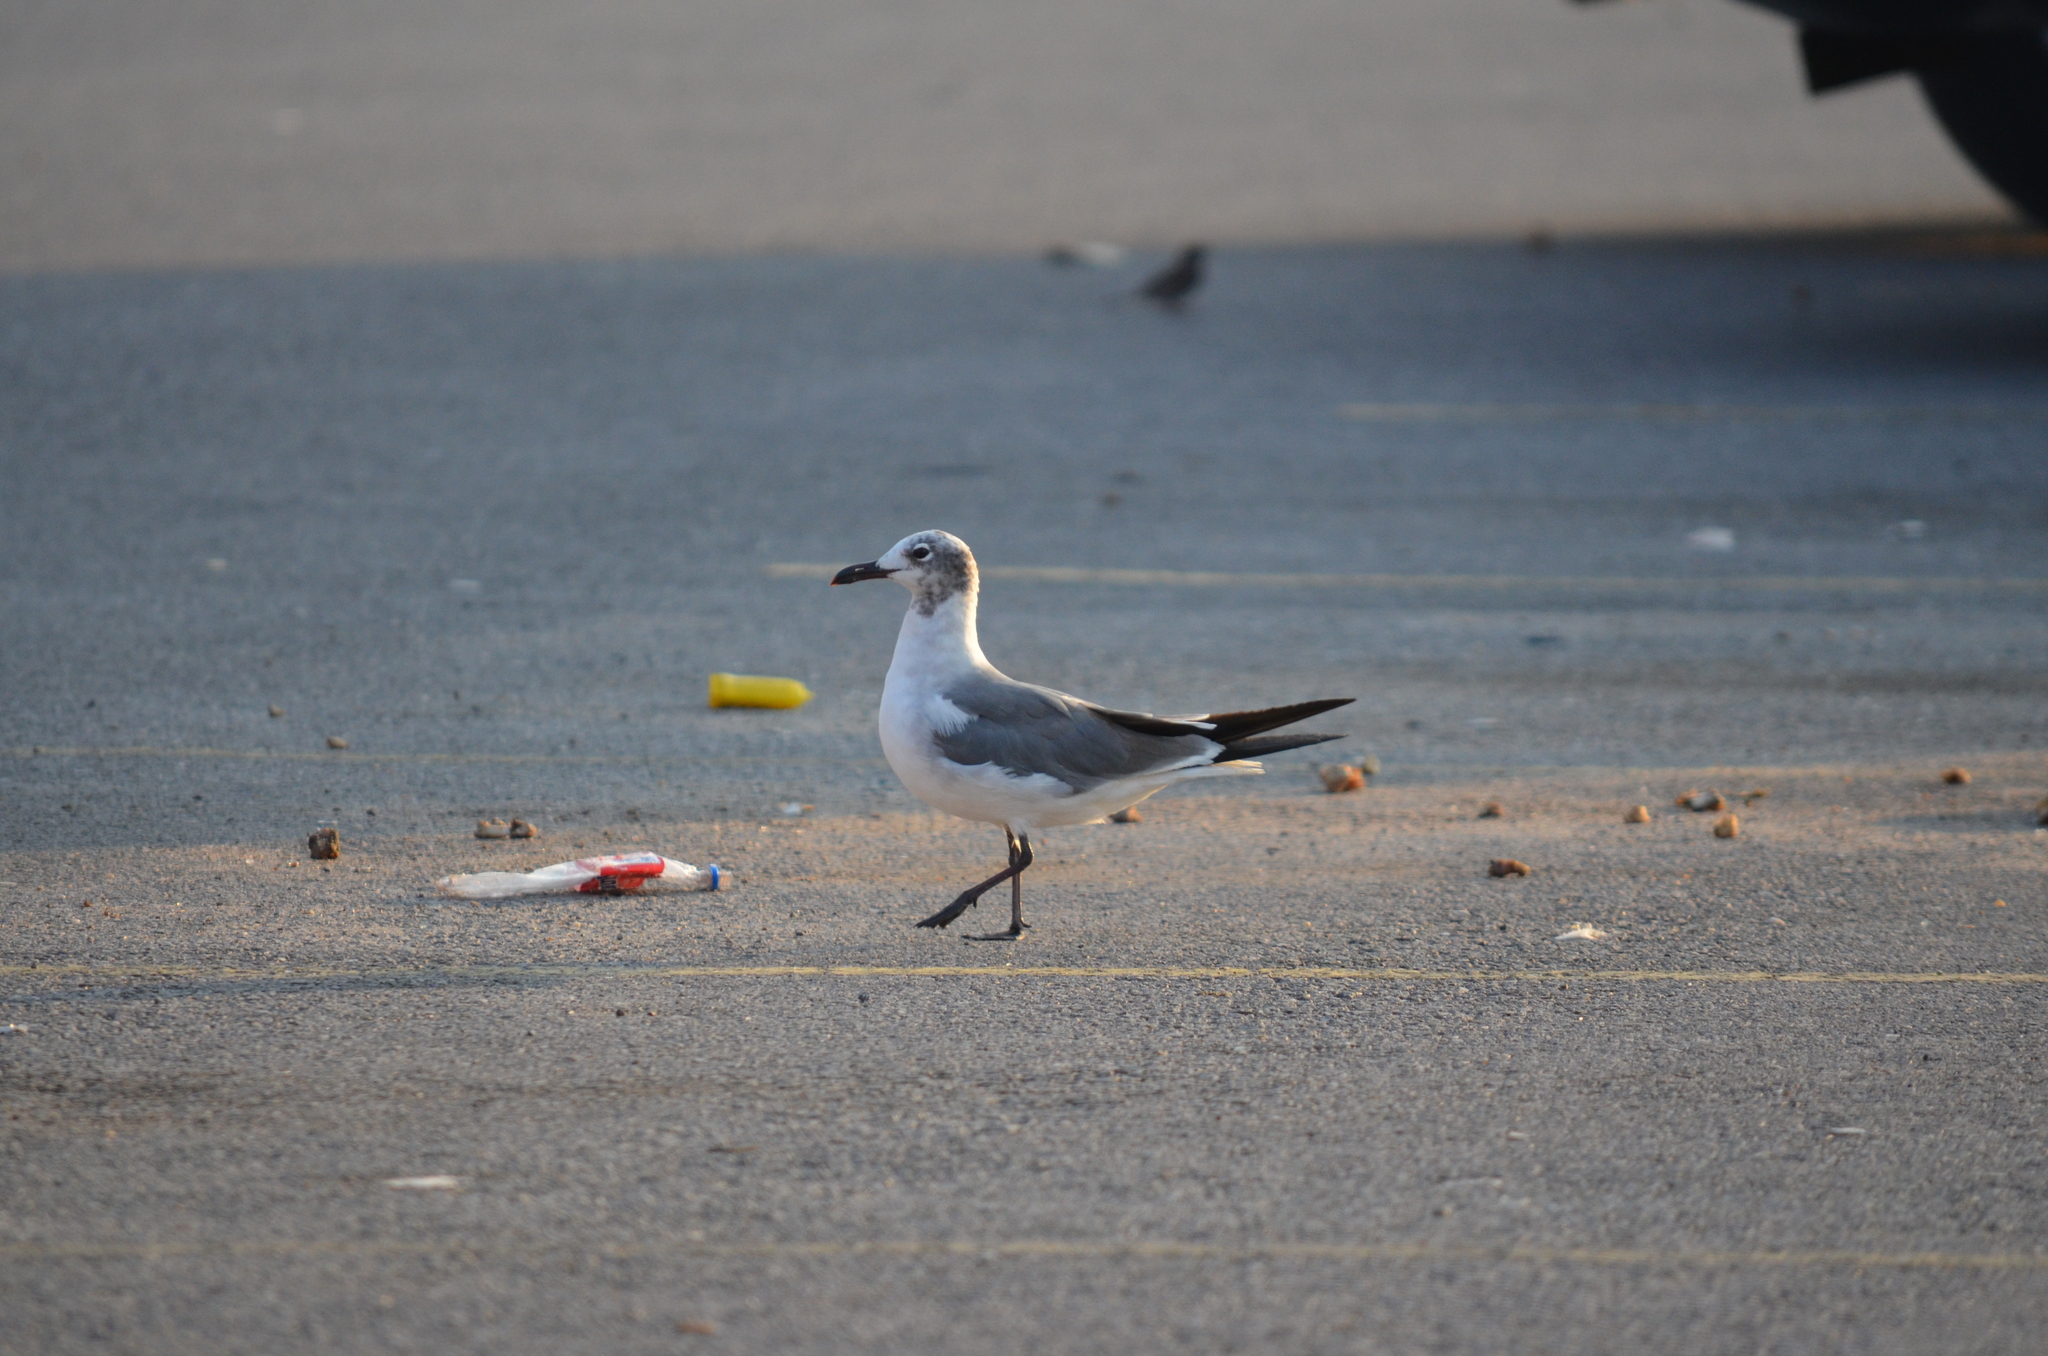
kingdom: Animalia
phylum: Chordata
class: Aves
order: Charadriiformes
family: Laridae
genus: Leucophaeus
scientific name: Leucophaeus atricilla
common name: Laughing gull
